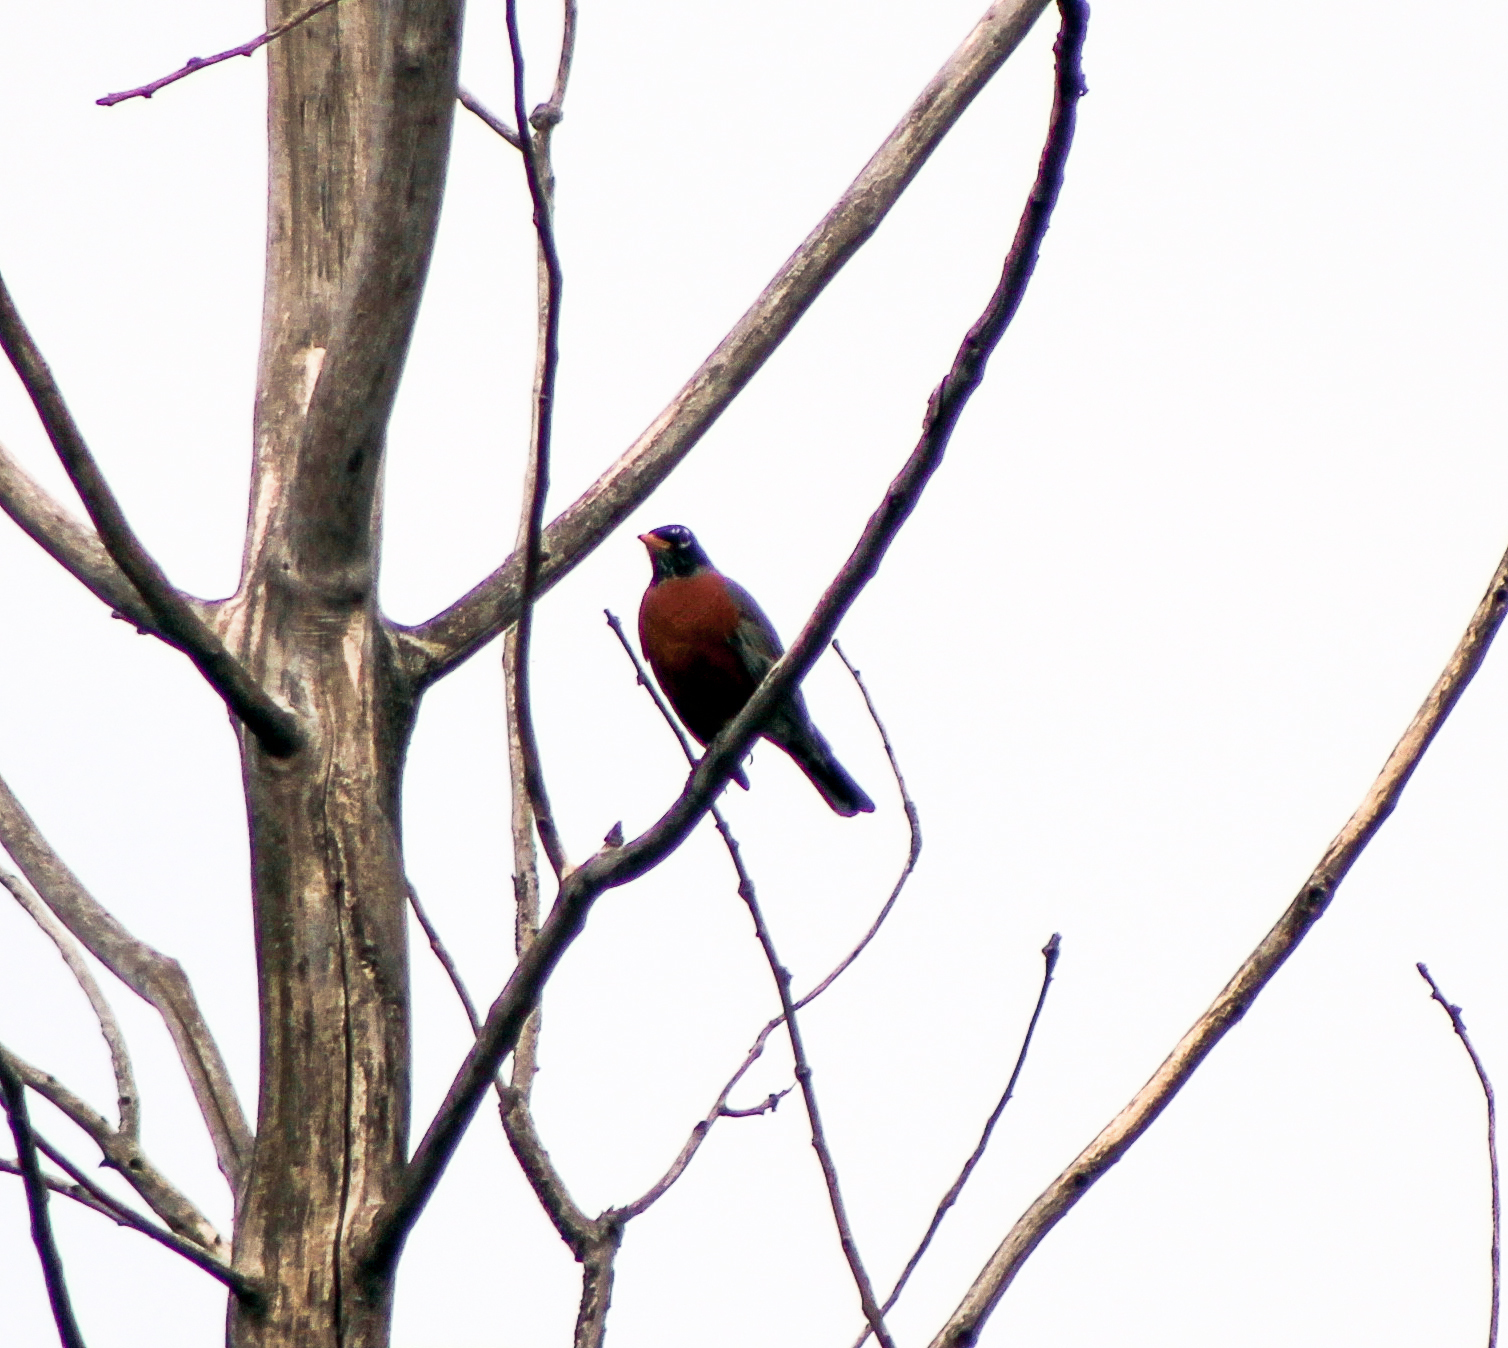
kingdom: Animalia
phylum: Chordata
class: Aves
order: Passeriformes
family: Turdidae
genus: Turdus
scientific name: Turdus migratorius
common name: American robin
